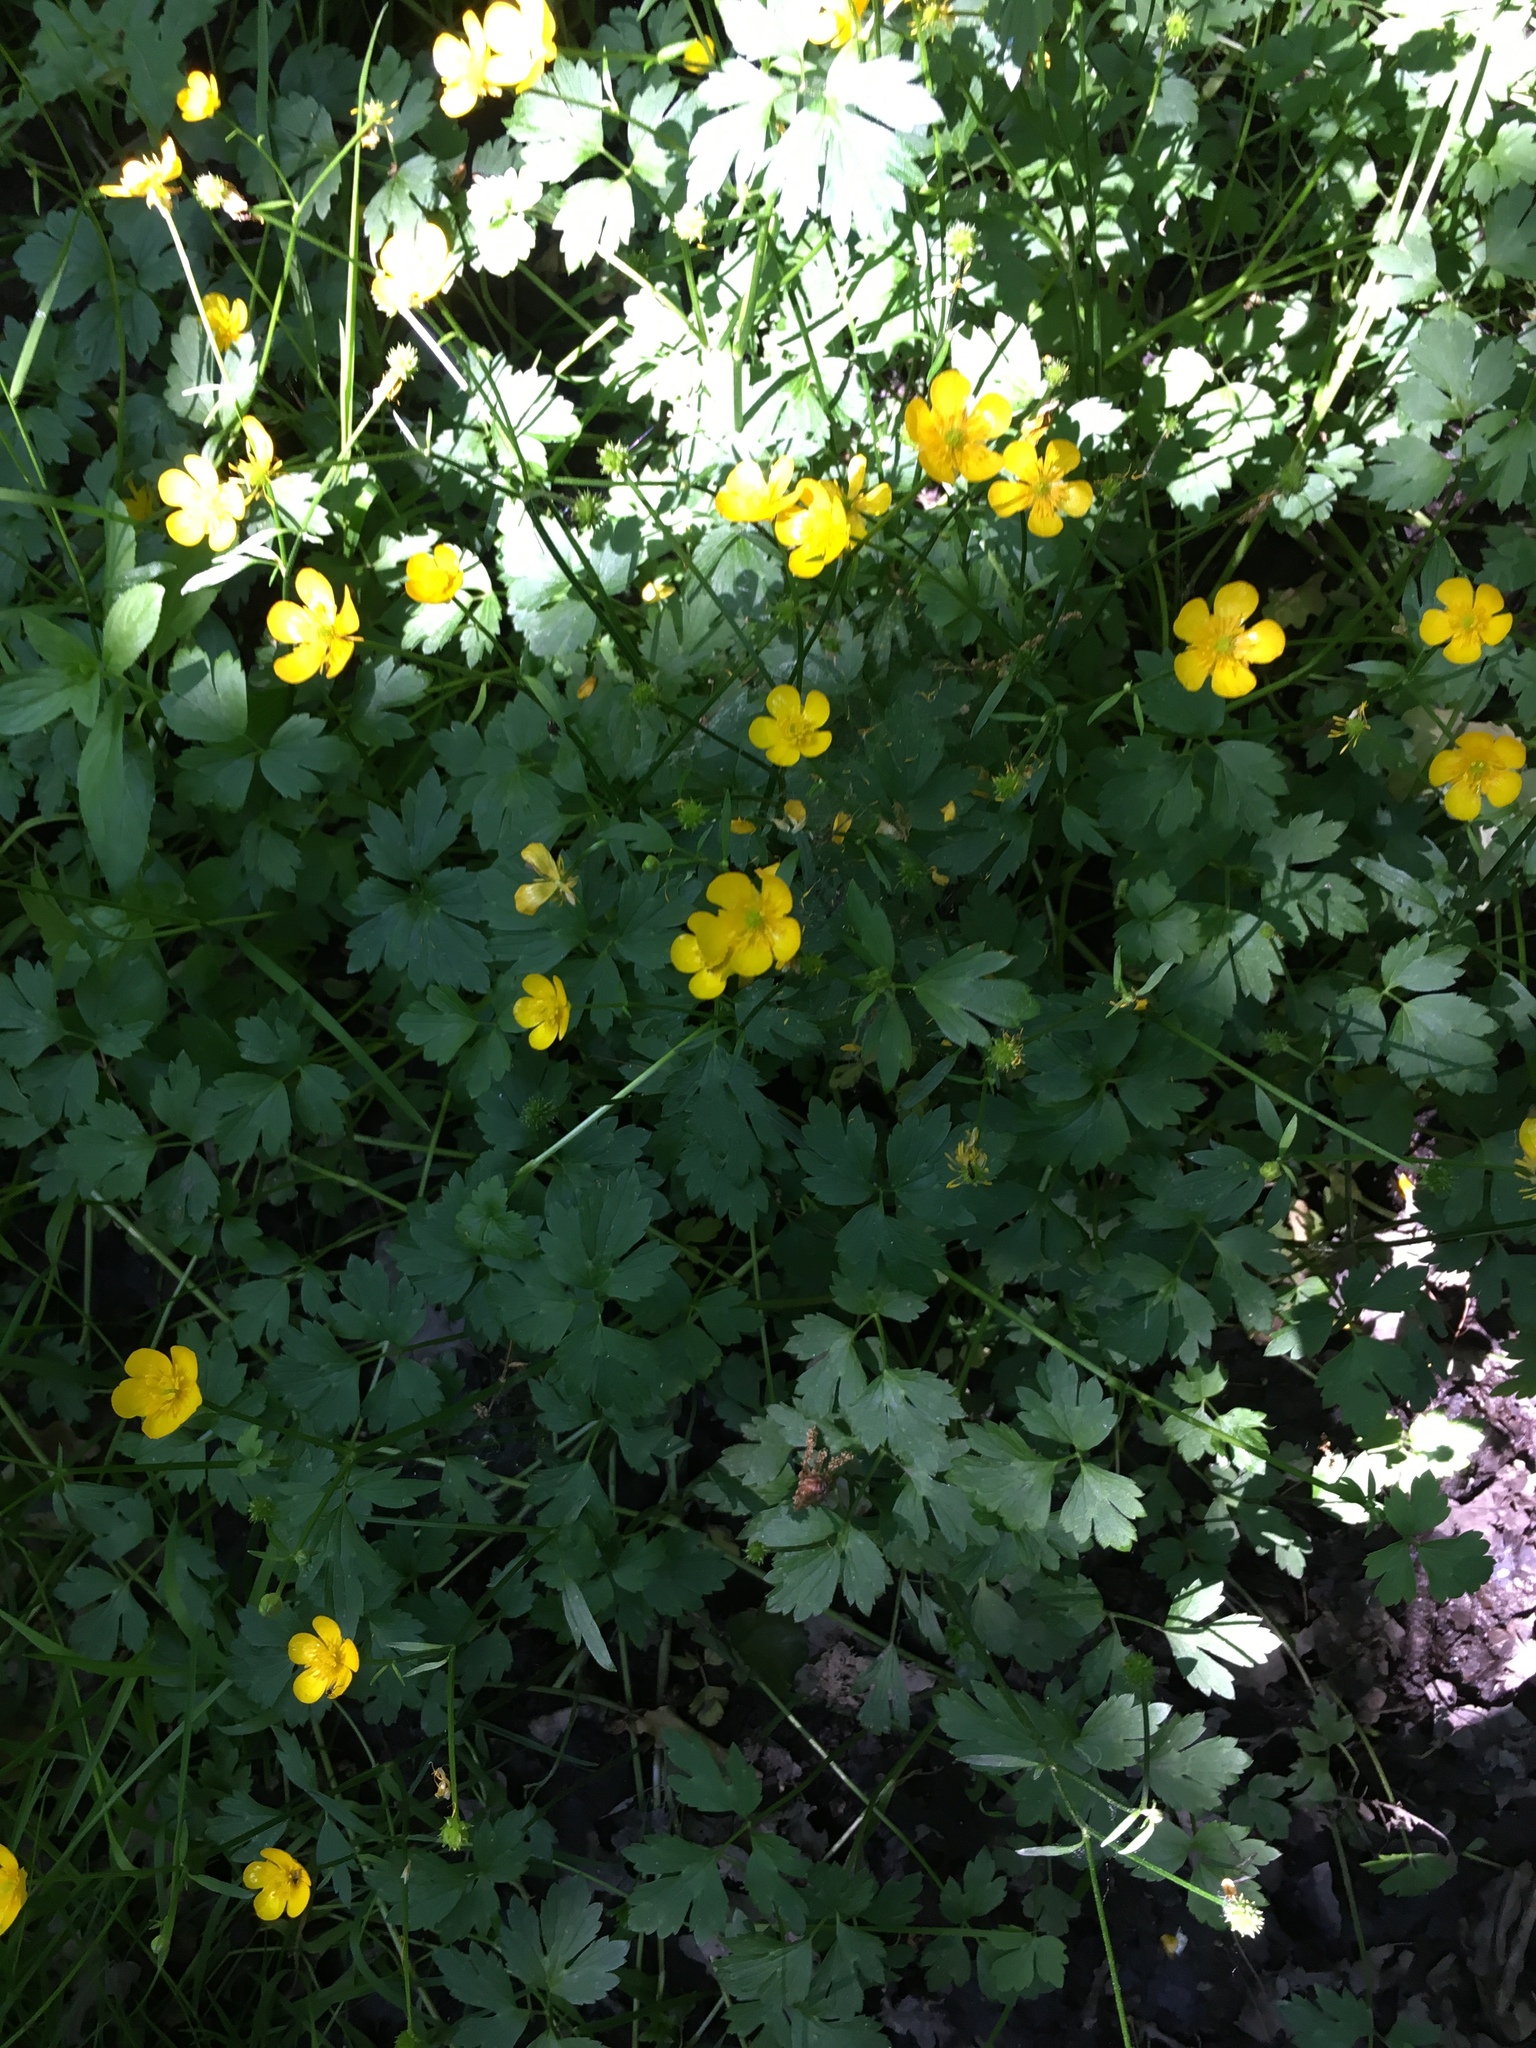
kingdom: Plantae
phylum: Tracheophyta
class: Magnoliopsida
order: Ranunculales
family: Ranunculaceae
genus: Ranunculus
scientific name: Ranunculus repens
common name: Creeping buttercup
